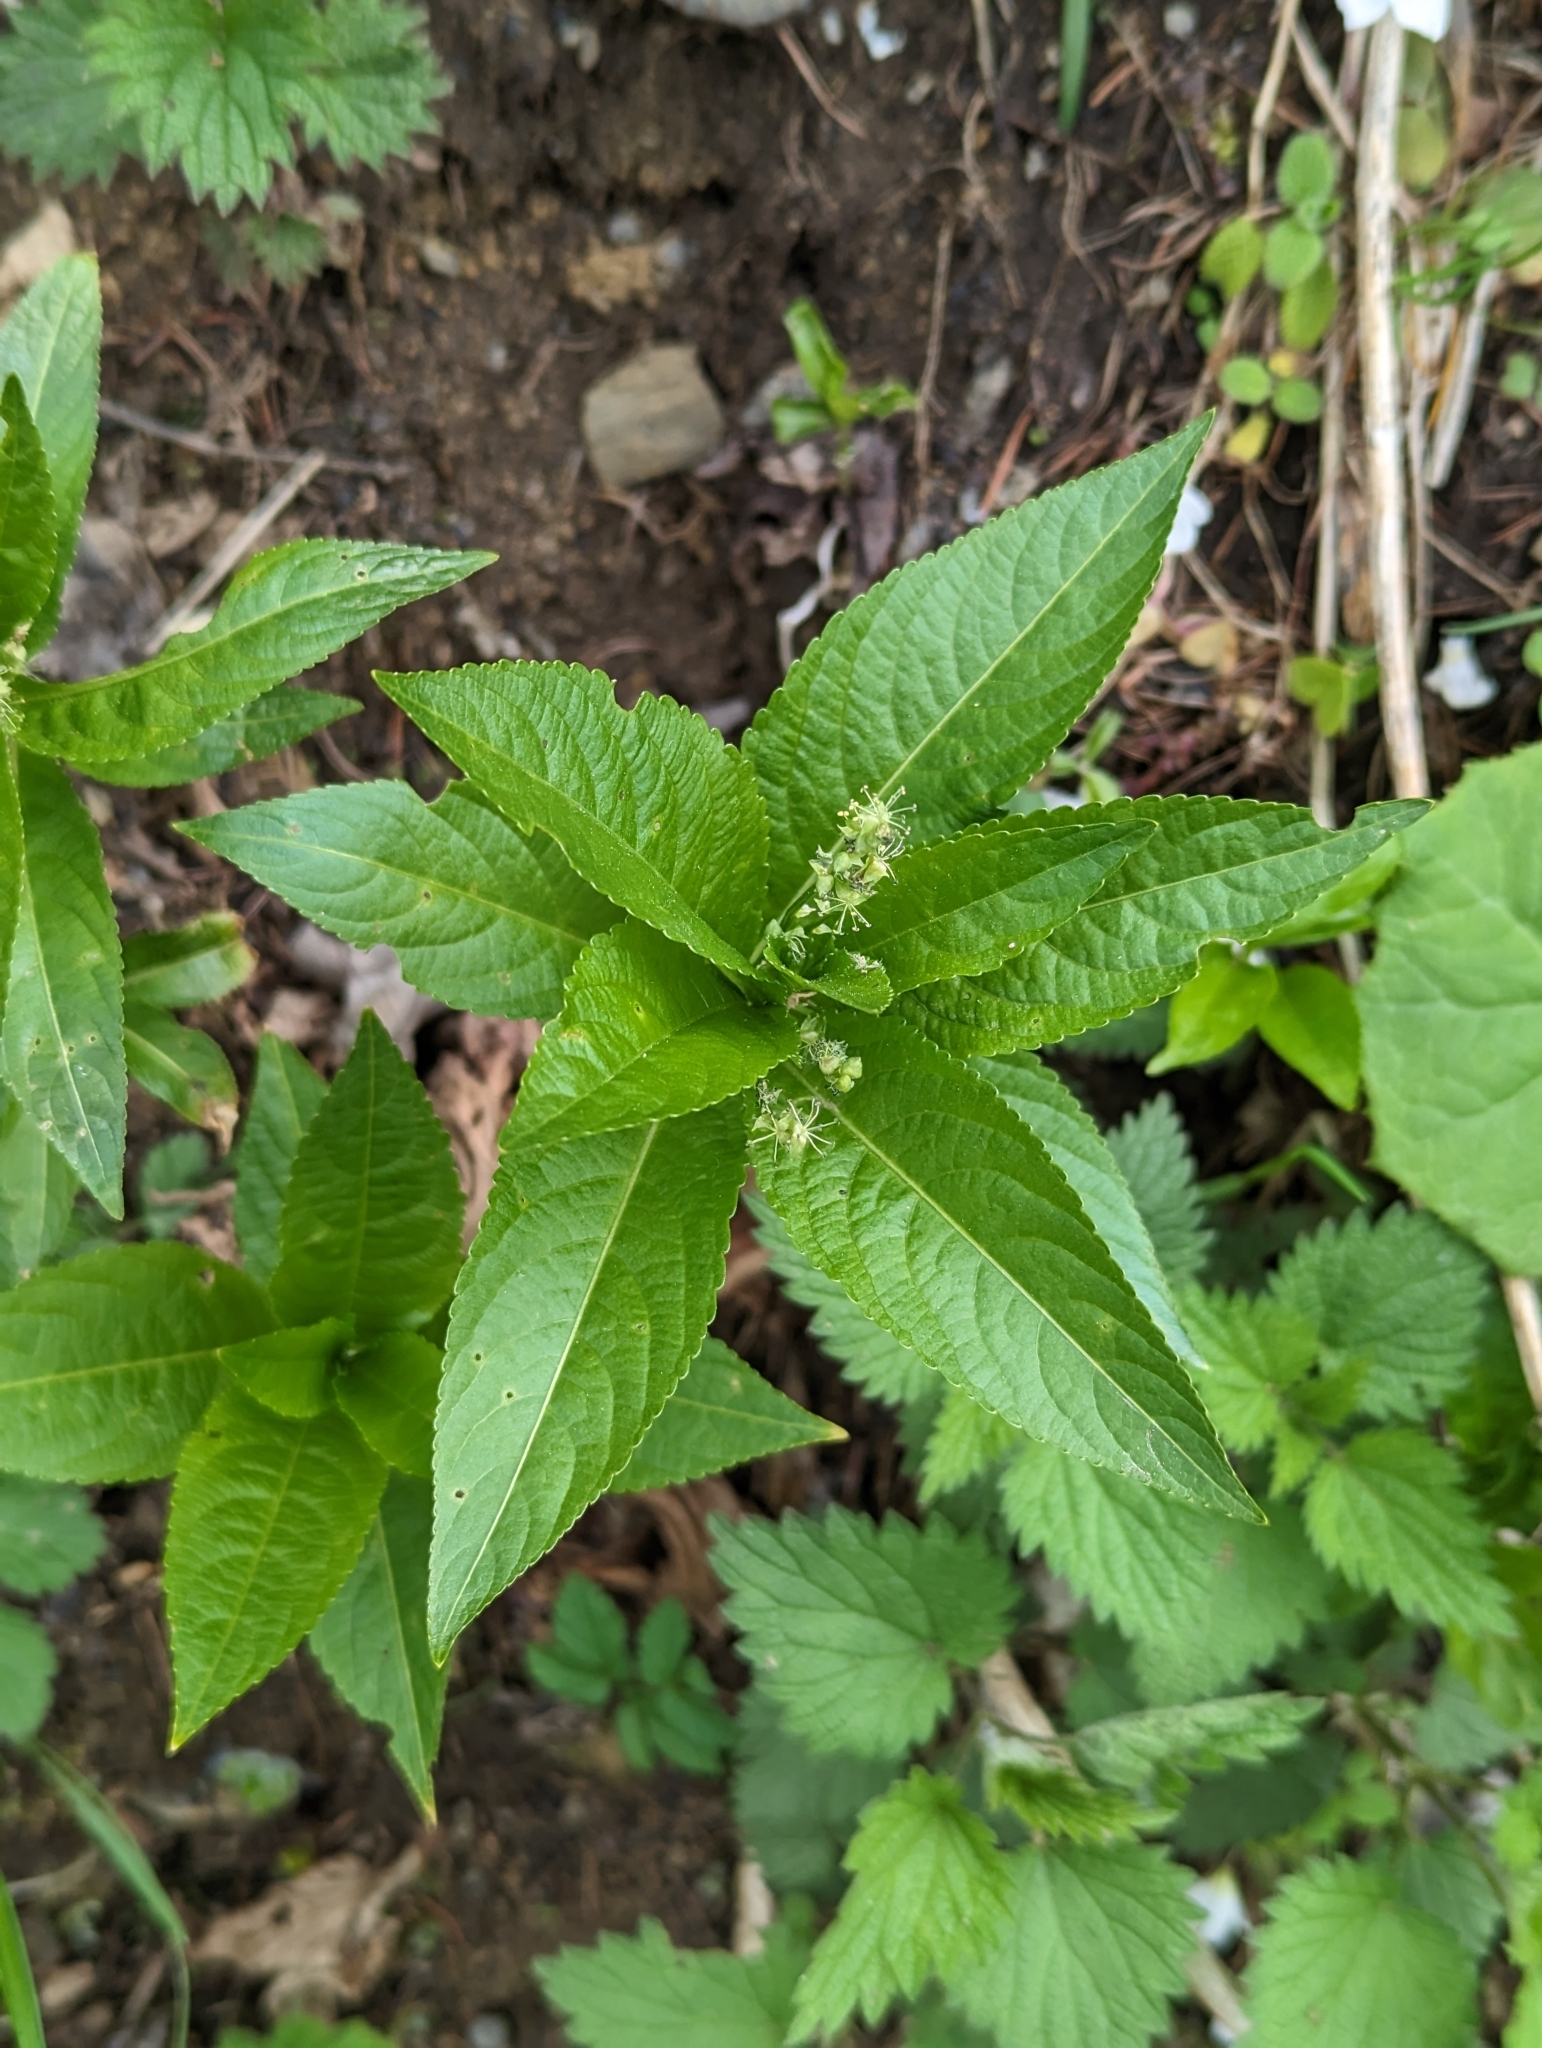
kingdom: Plantae
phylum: Tracheophyta
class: Magnoliopsida
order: Malpighiales
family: Euphorbiaceae
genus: Mercurialis
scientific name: Mercurialis perennis
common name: Dog mercury
